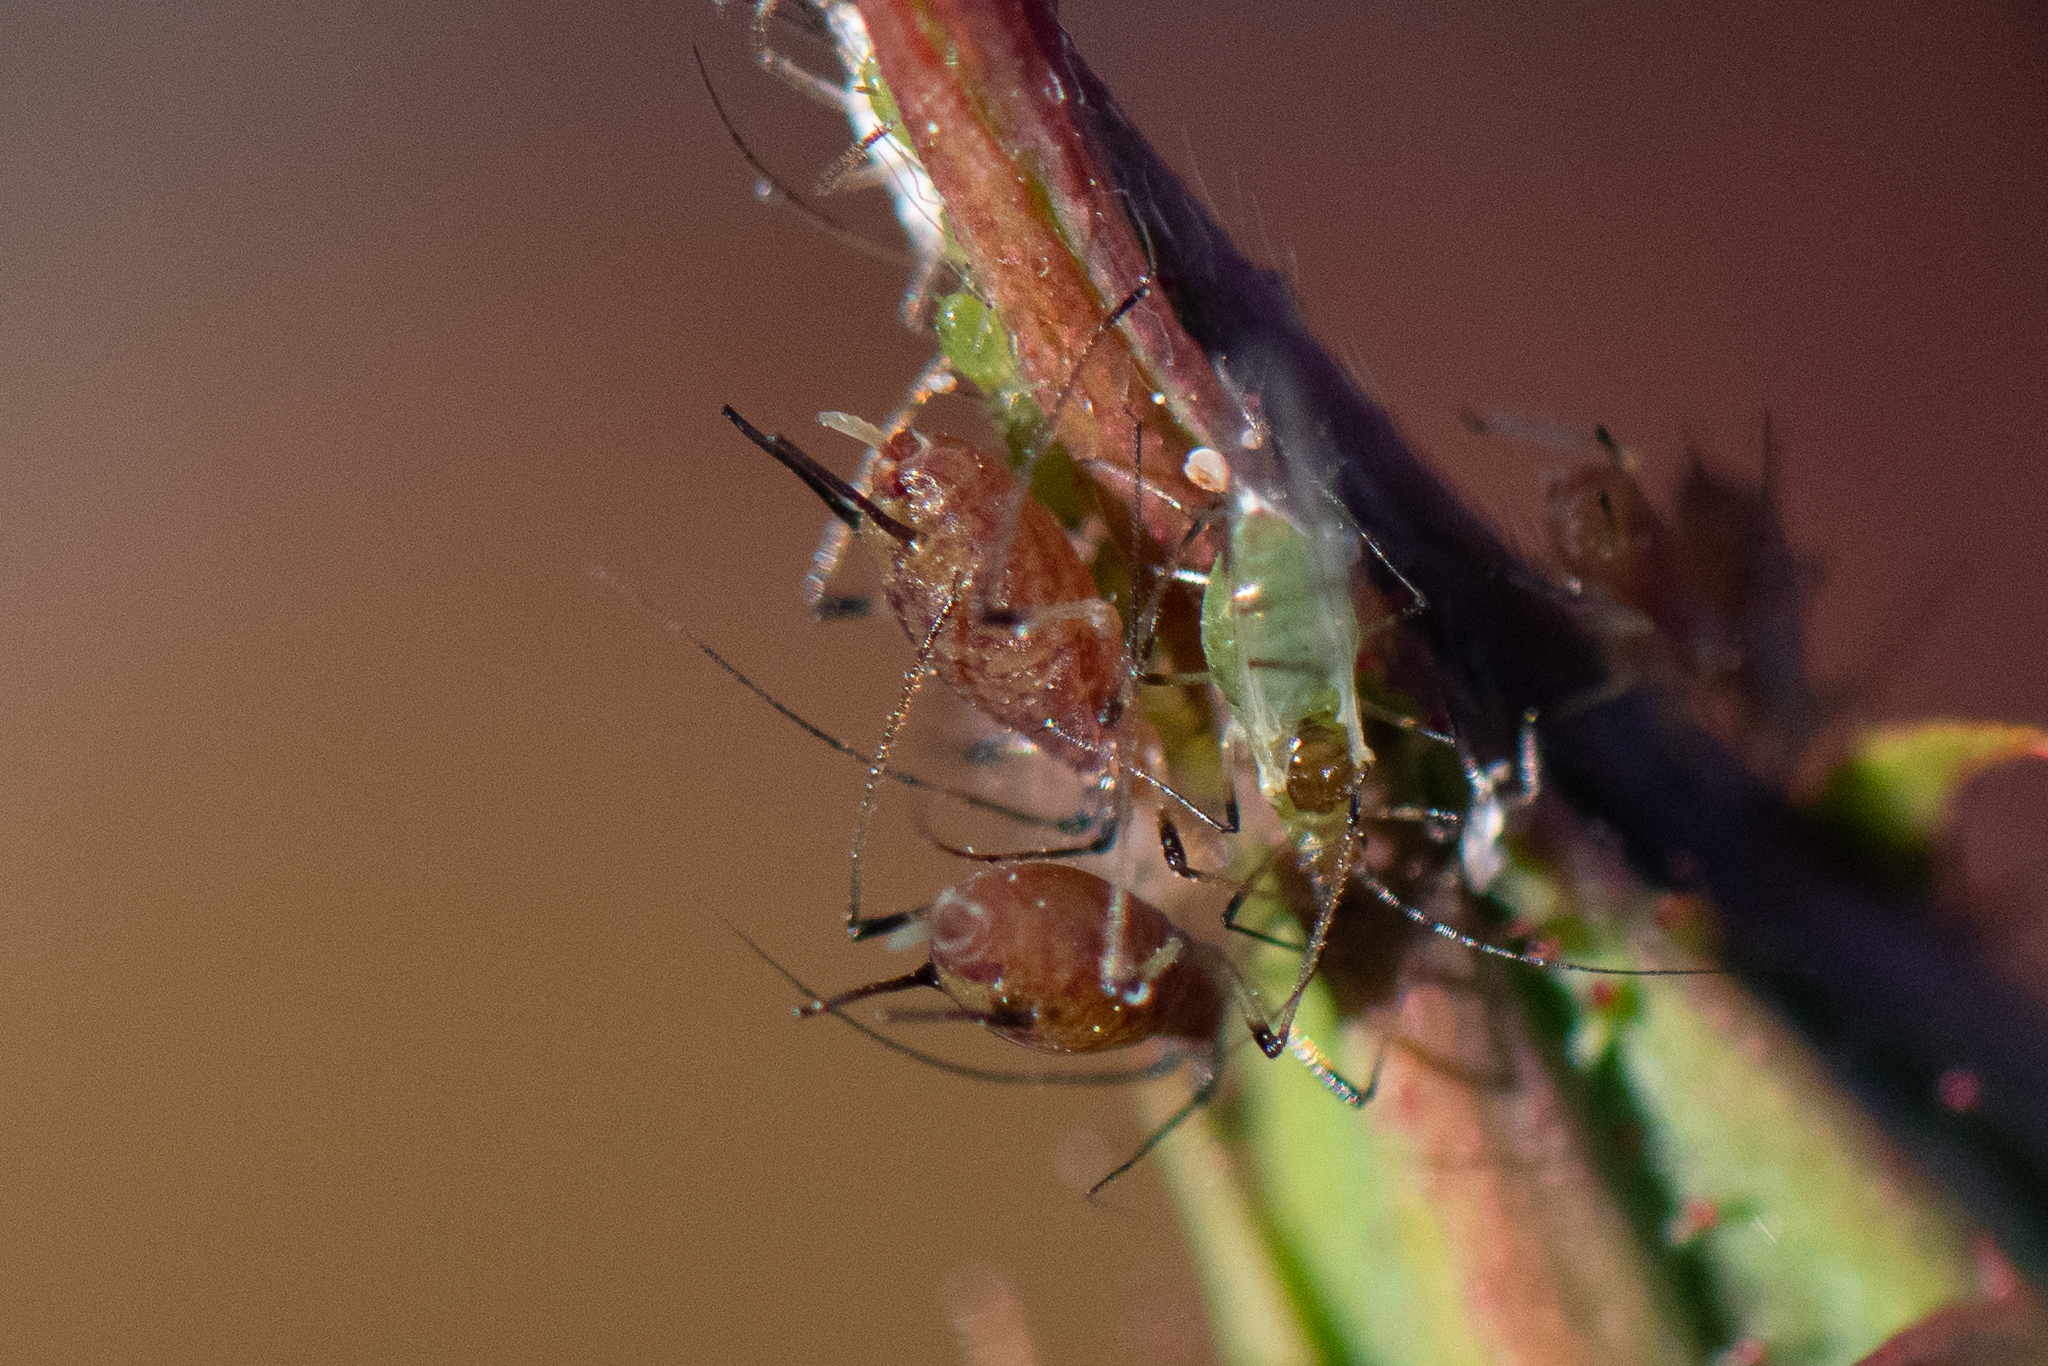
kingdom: Animalia
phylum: Arthropoda
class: Insecta
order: Hemiptera
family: Aphididae
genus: Macrosiphum
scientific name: Macrosiphum rosae
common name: Rose aphid
